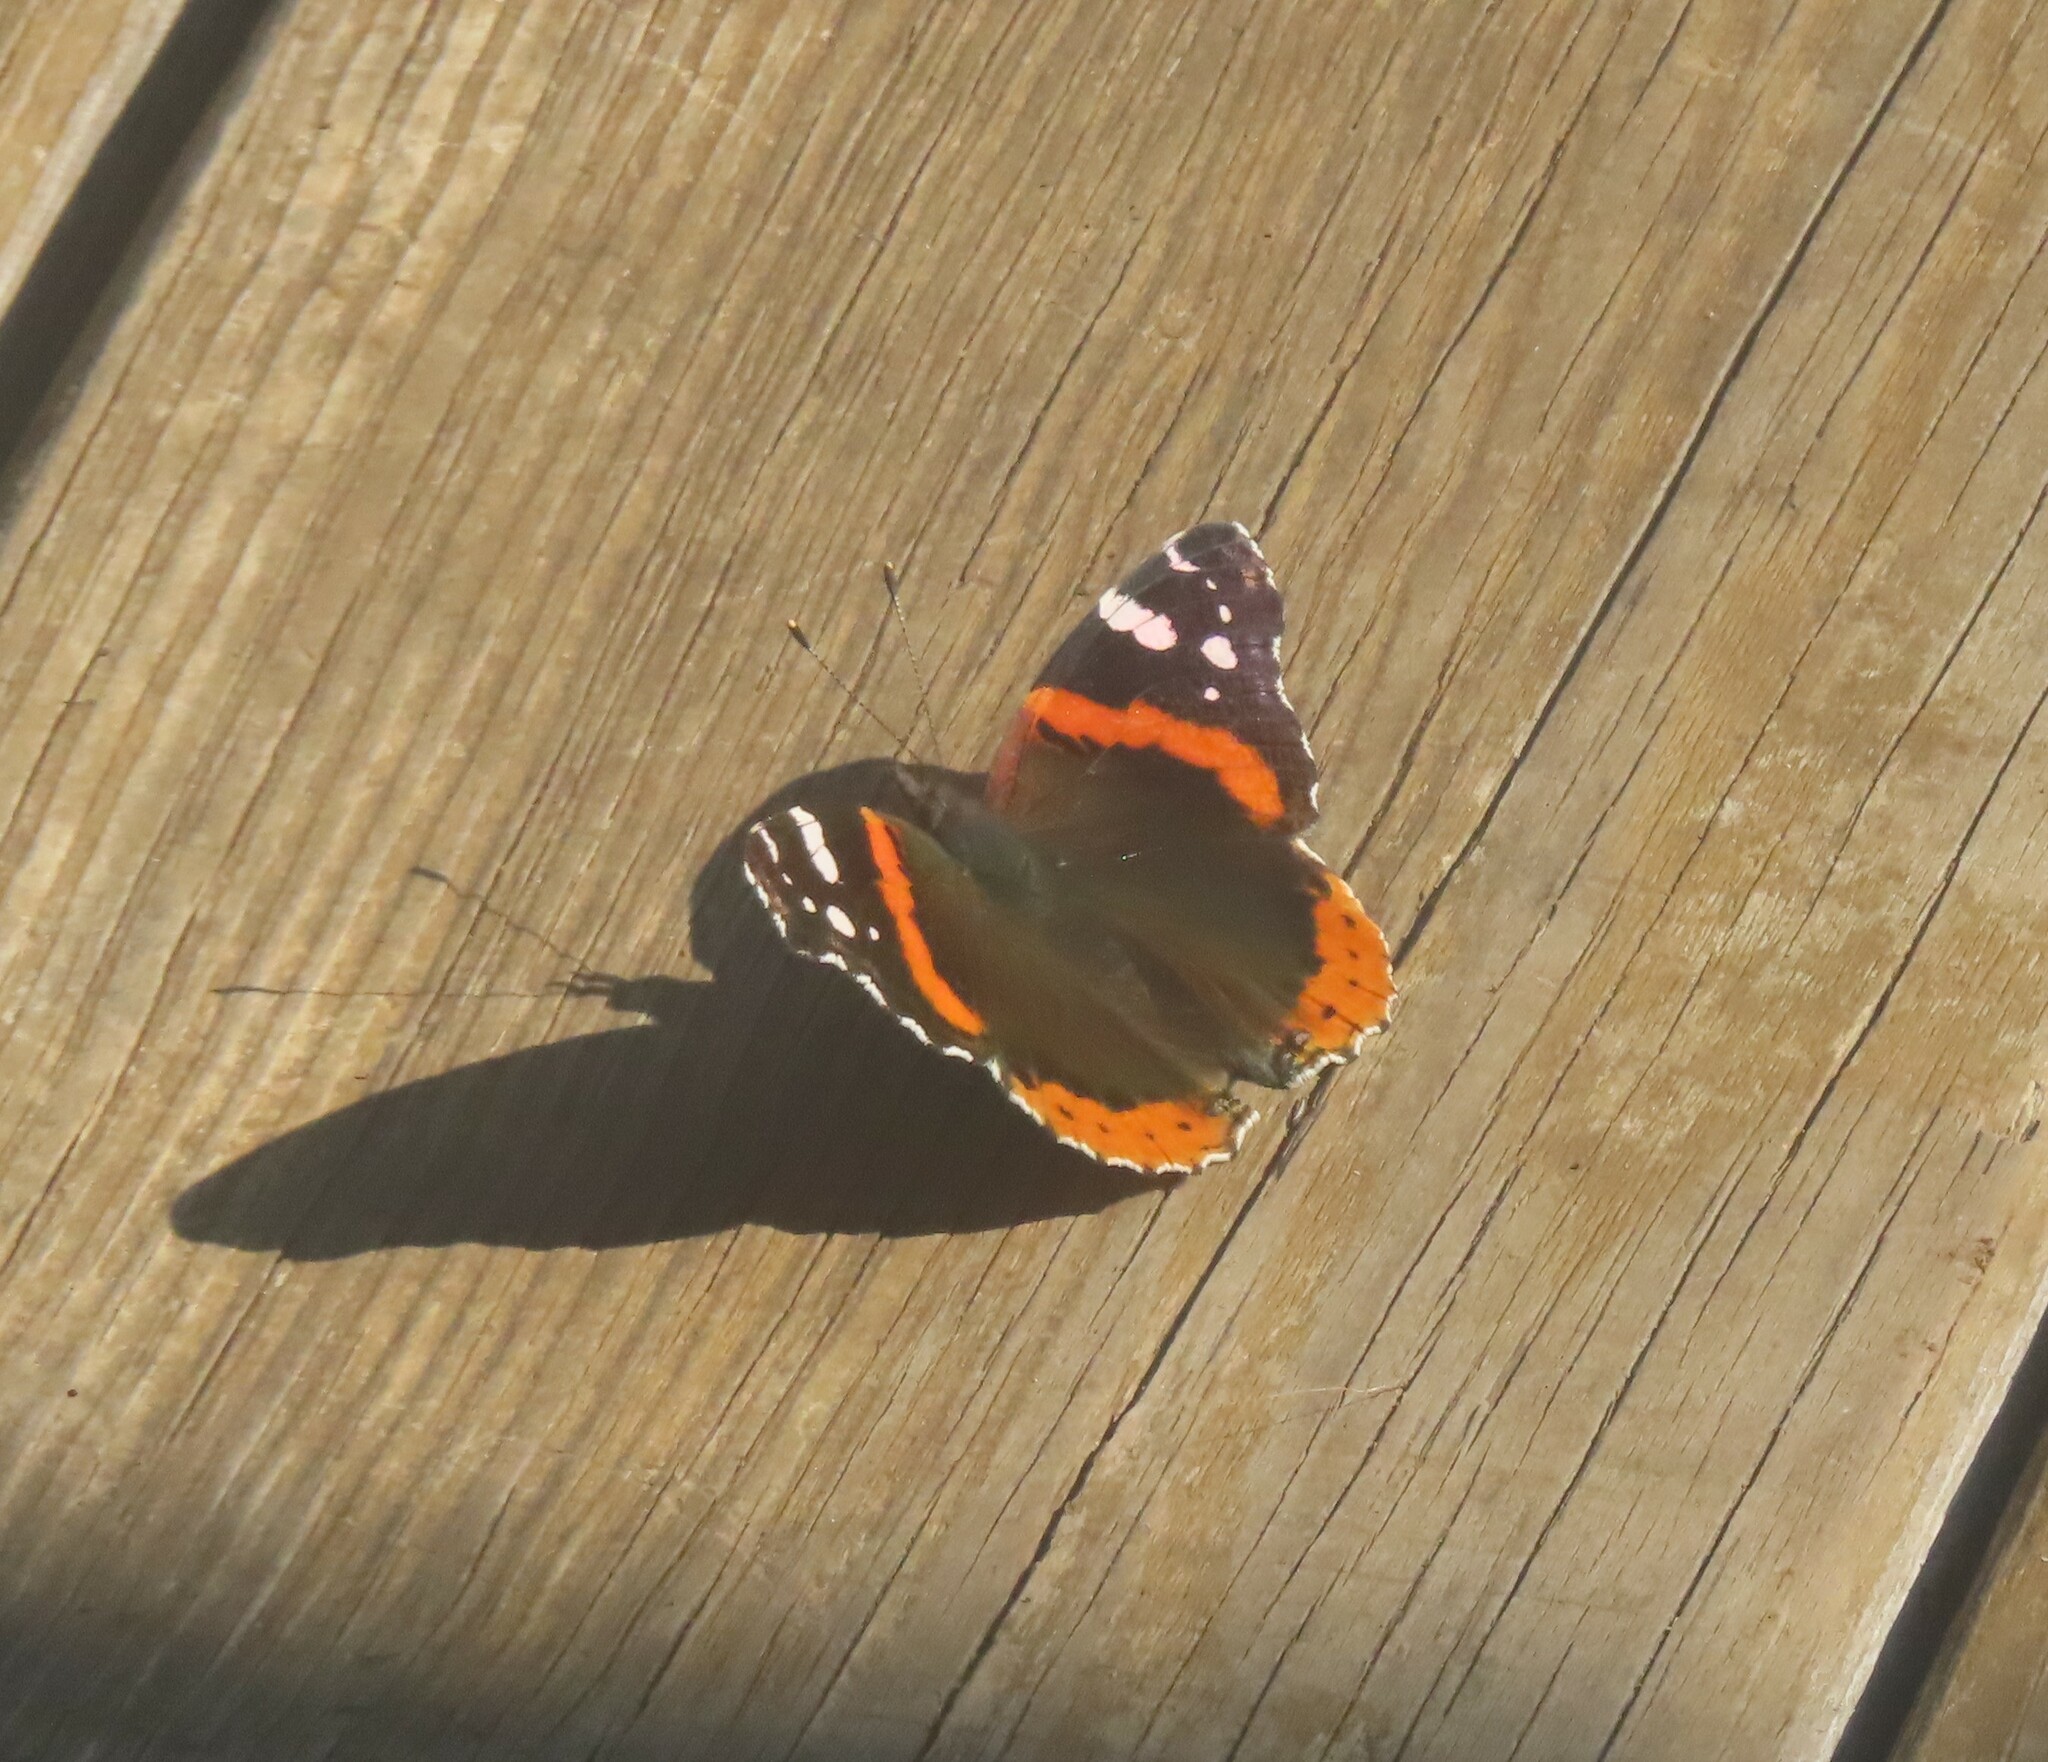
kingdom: Animalia
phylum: Arthropoda
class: Insecta
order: Lepidoptera
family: Nymphalidae
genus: Vanessa
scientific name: Vanessa atalanta
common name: Red admiral
